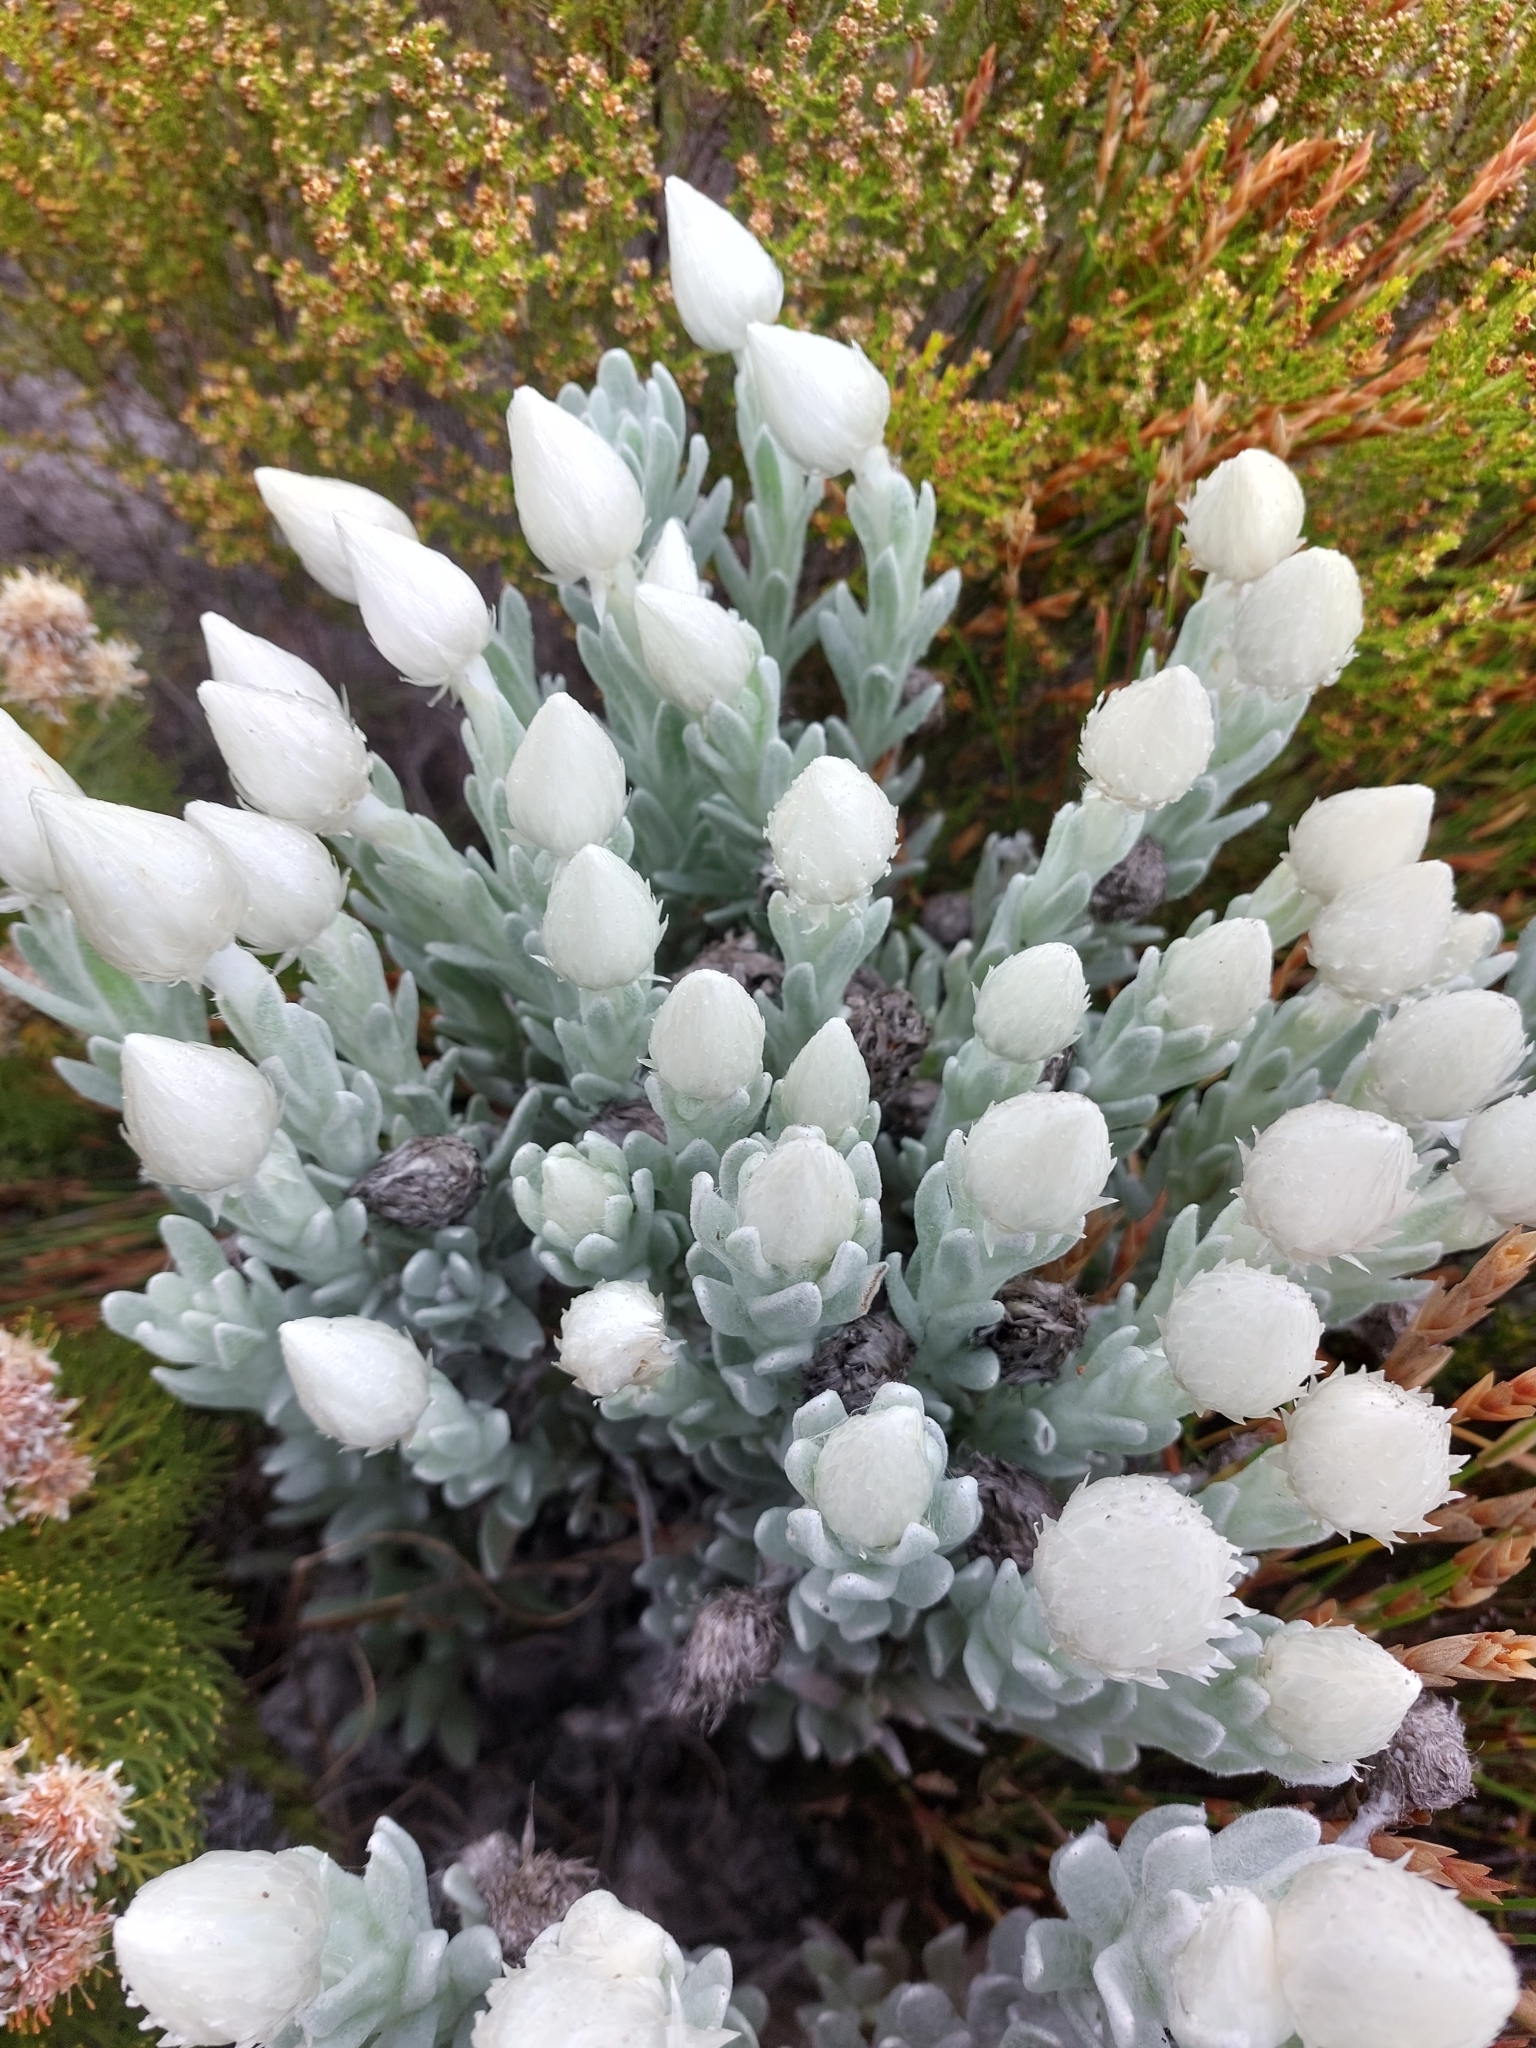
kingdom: Plantae
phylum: Tracheophyta
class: Magnoliopsida
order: Asterales
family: Asteraceae
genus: Syncarpha
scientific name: Syncarpha vestita
